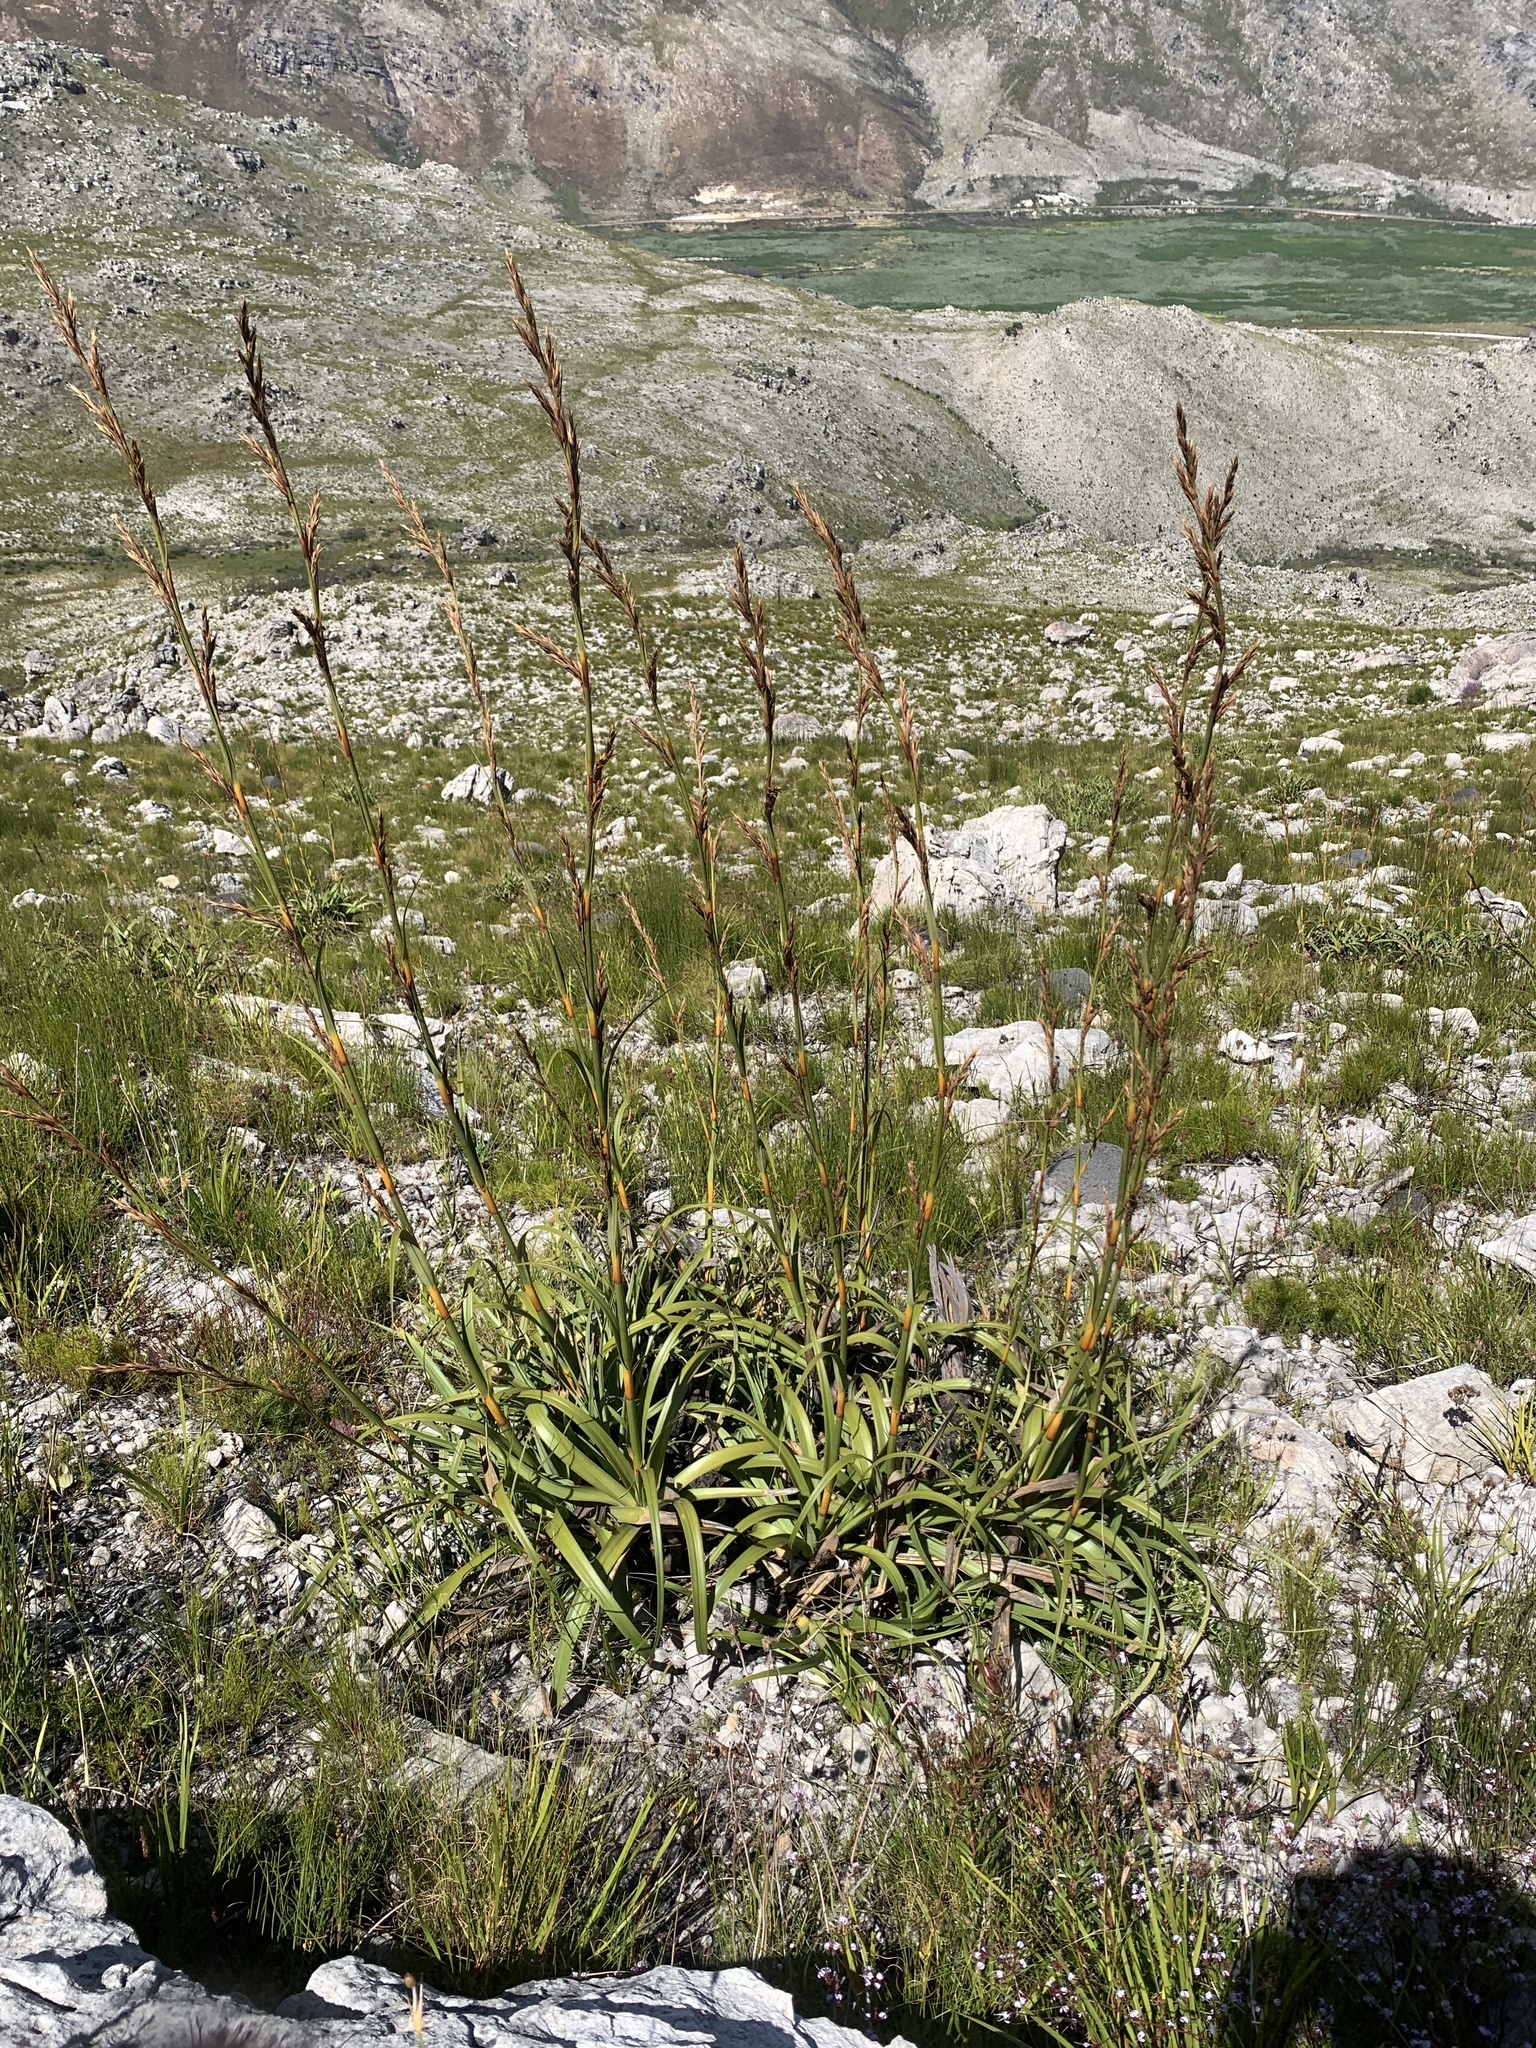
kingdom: Plantae
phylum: Tracheophyta
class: Liliopsida
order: Poales
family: Cyperaceae
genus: Tetraria
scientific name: Tetraria thermalis
